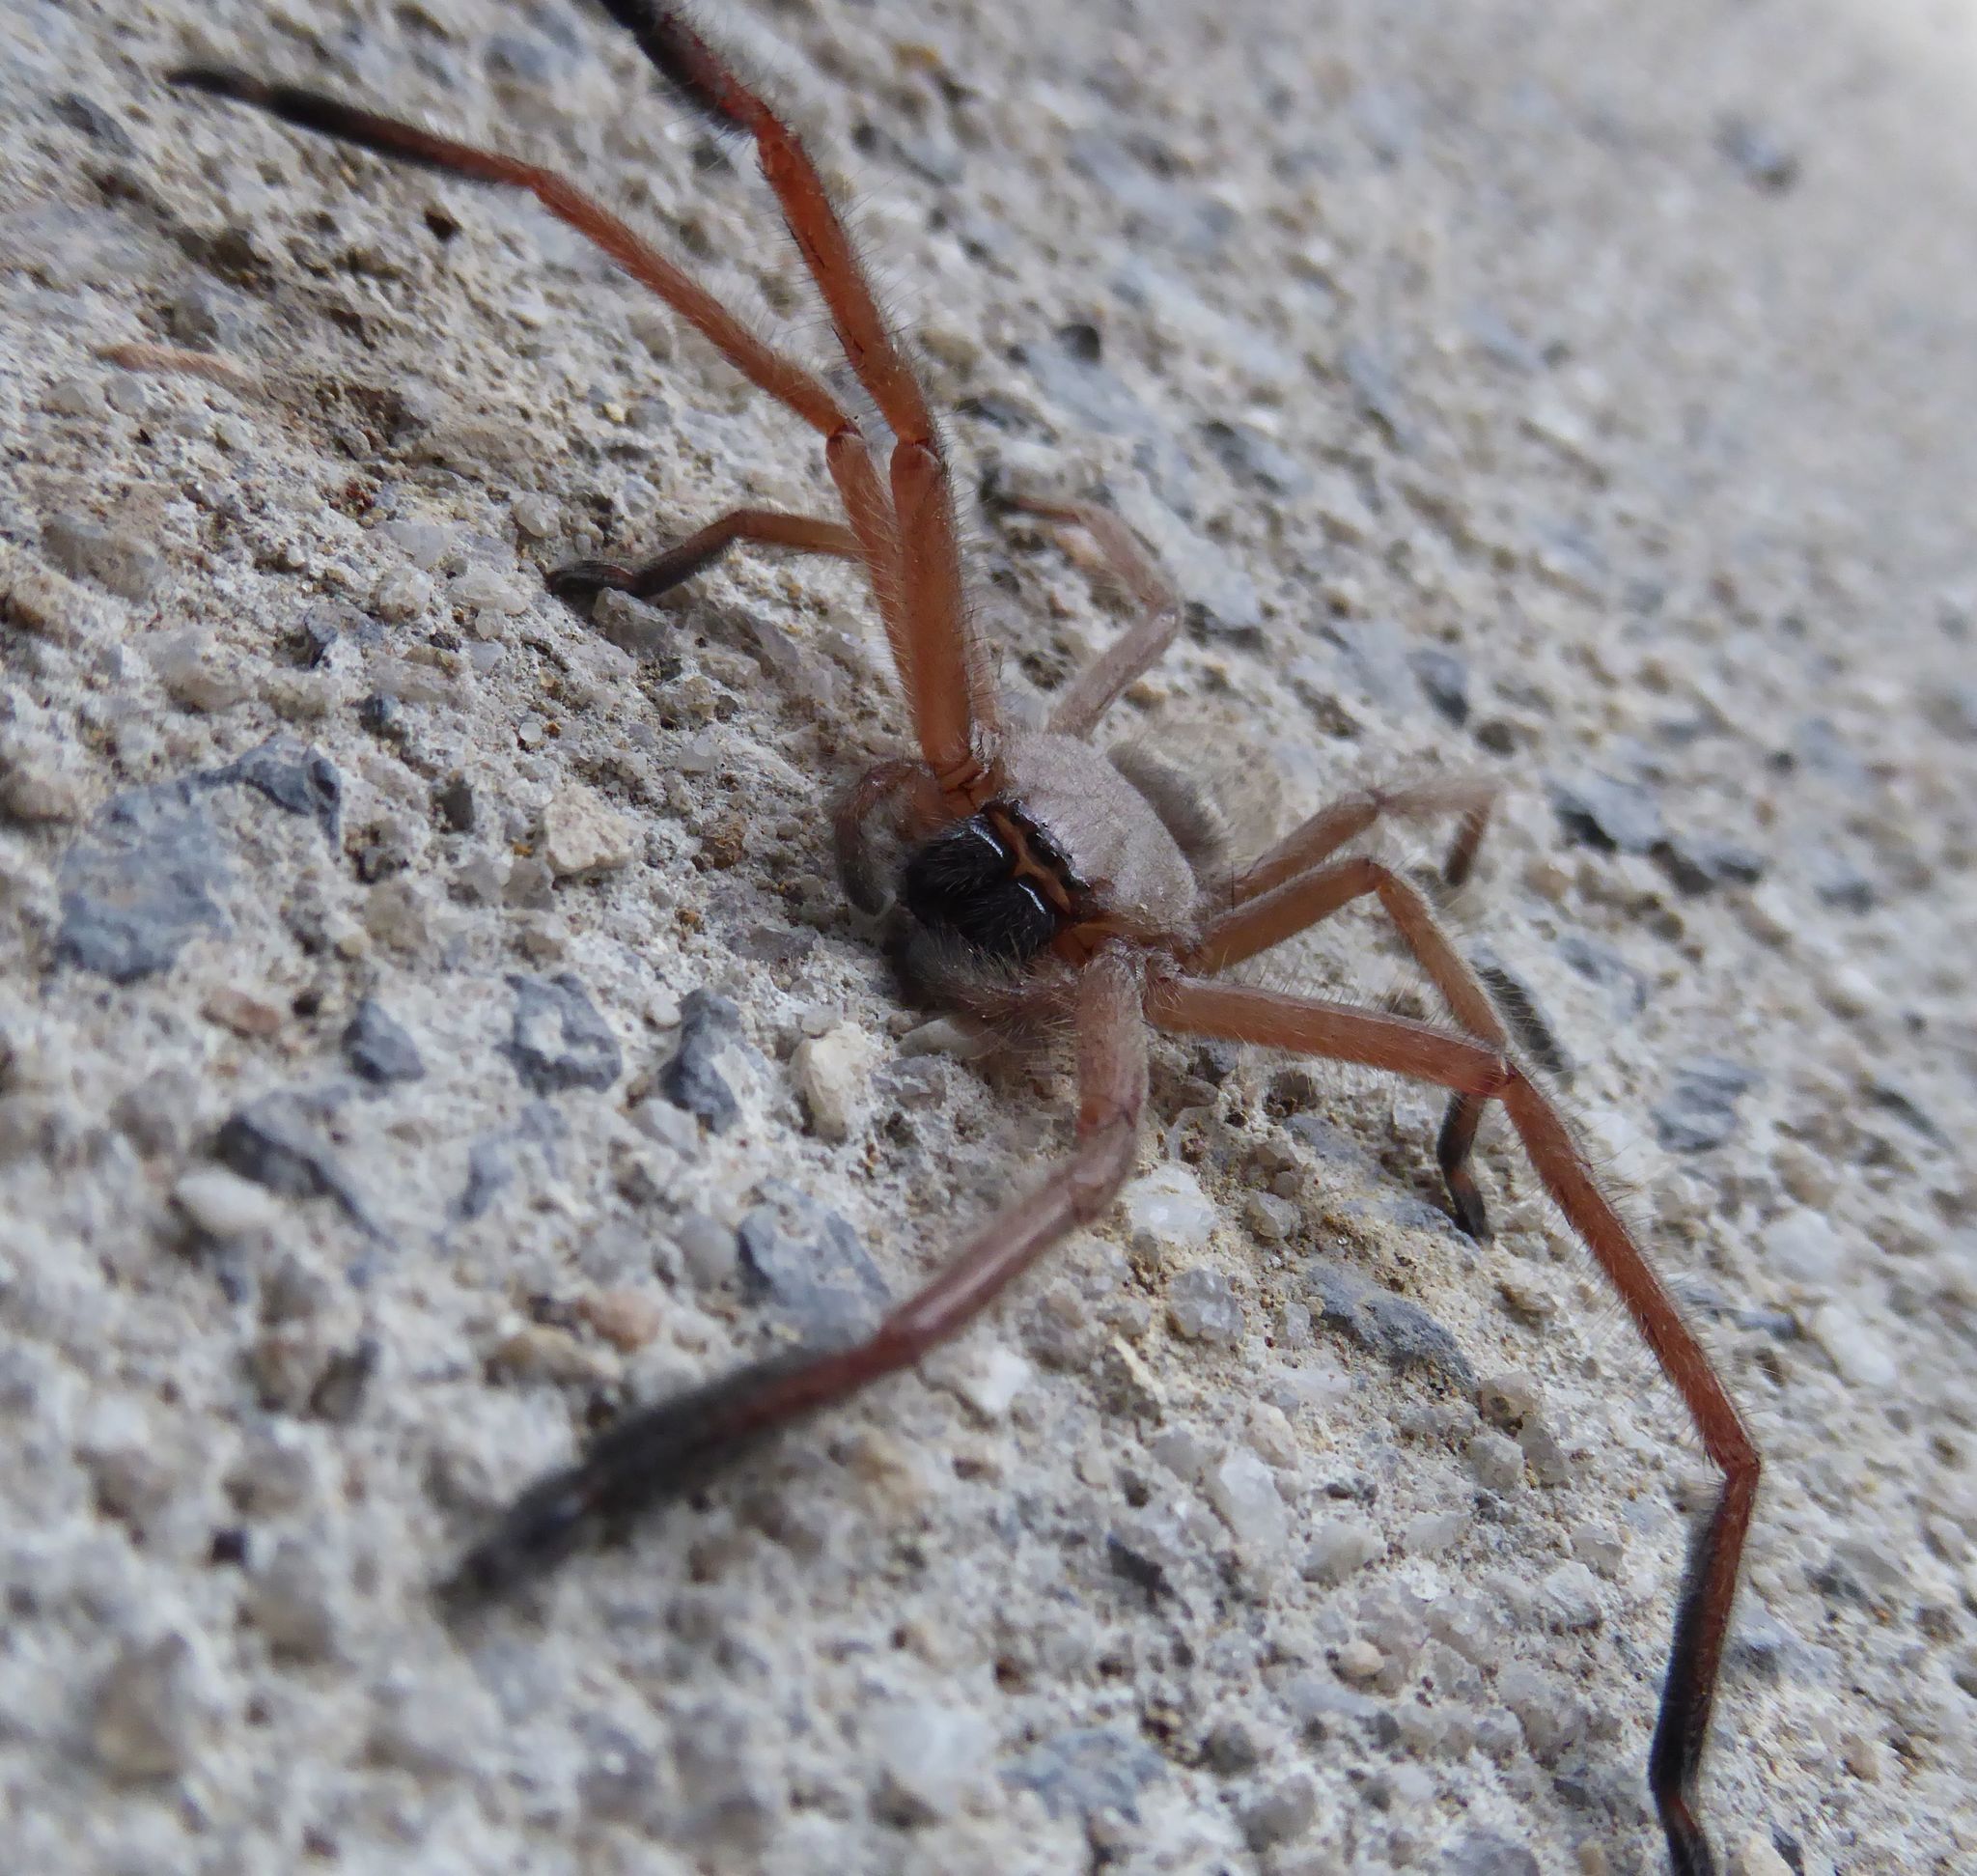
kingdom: Animalia
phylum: Arthropoda
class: Arachnida
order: Araneae
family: Sparassidae
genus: Delena
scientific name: Delena cancerides
